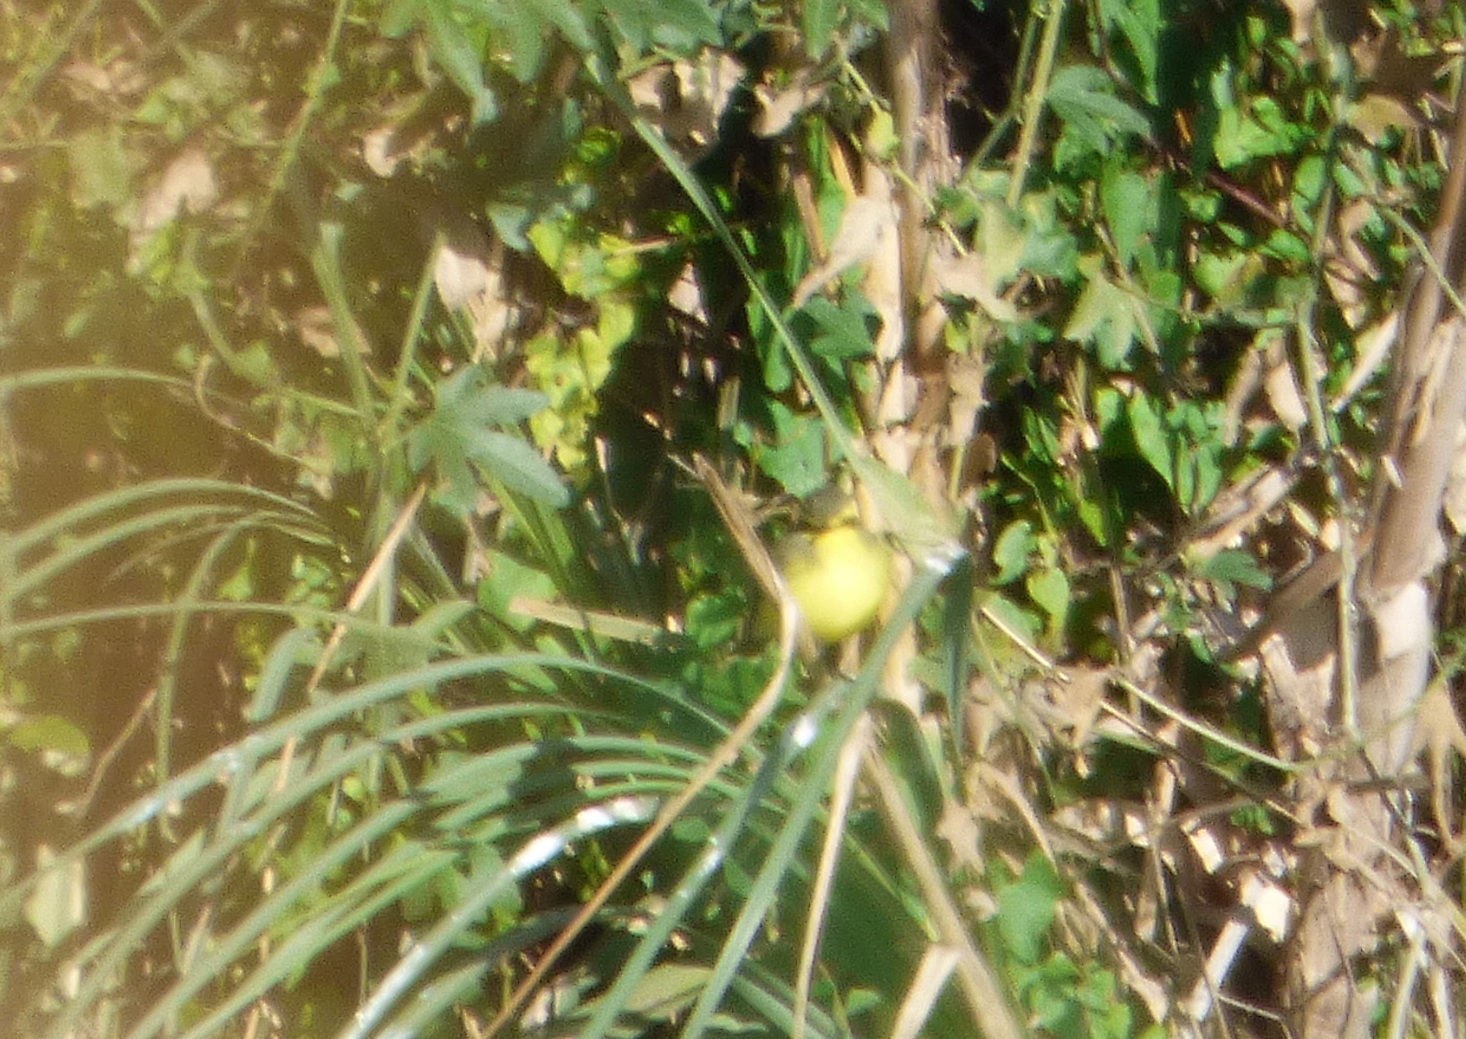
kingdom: Animalia
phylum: Chordata
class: Aves
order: Passeriformes
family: Tyrannidae
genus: Satrapa
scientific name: Satrapa icterophrys
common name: Yellow-browed tyrant
